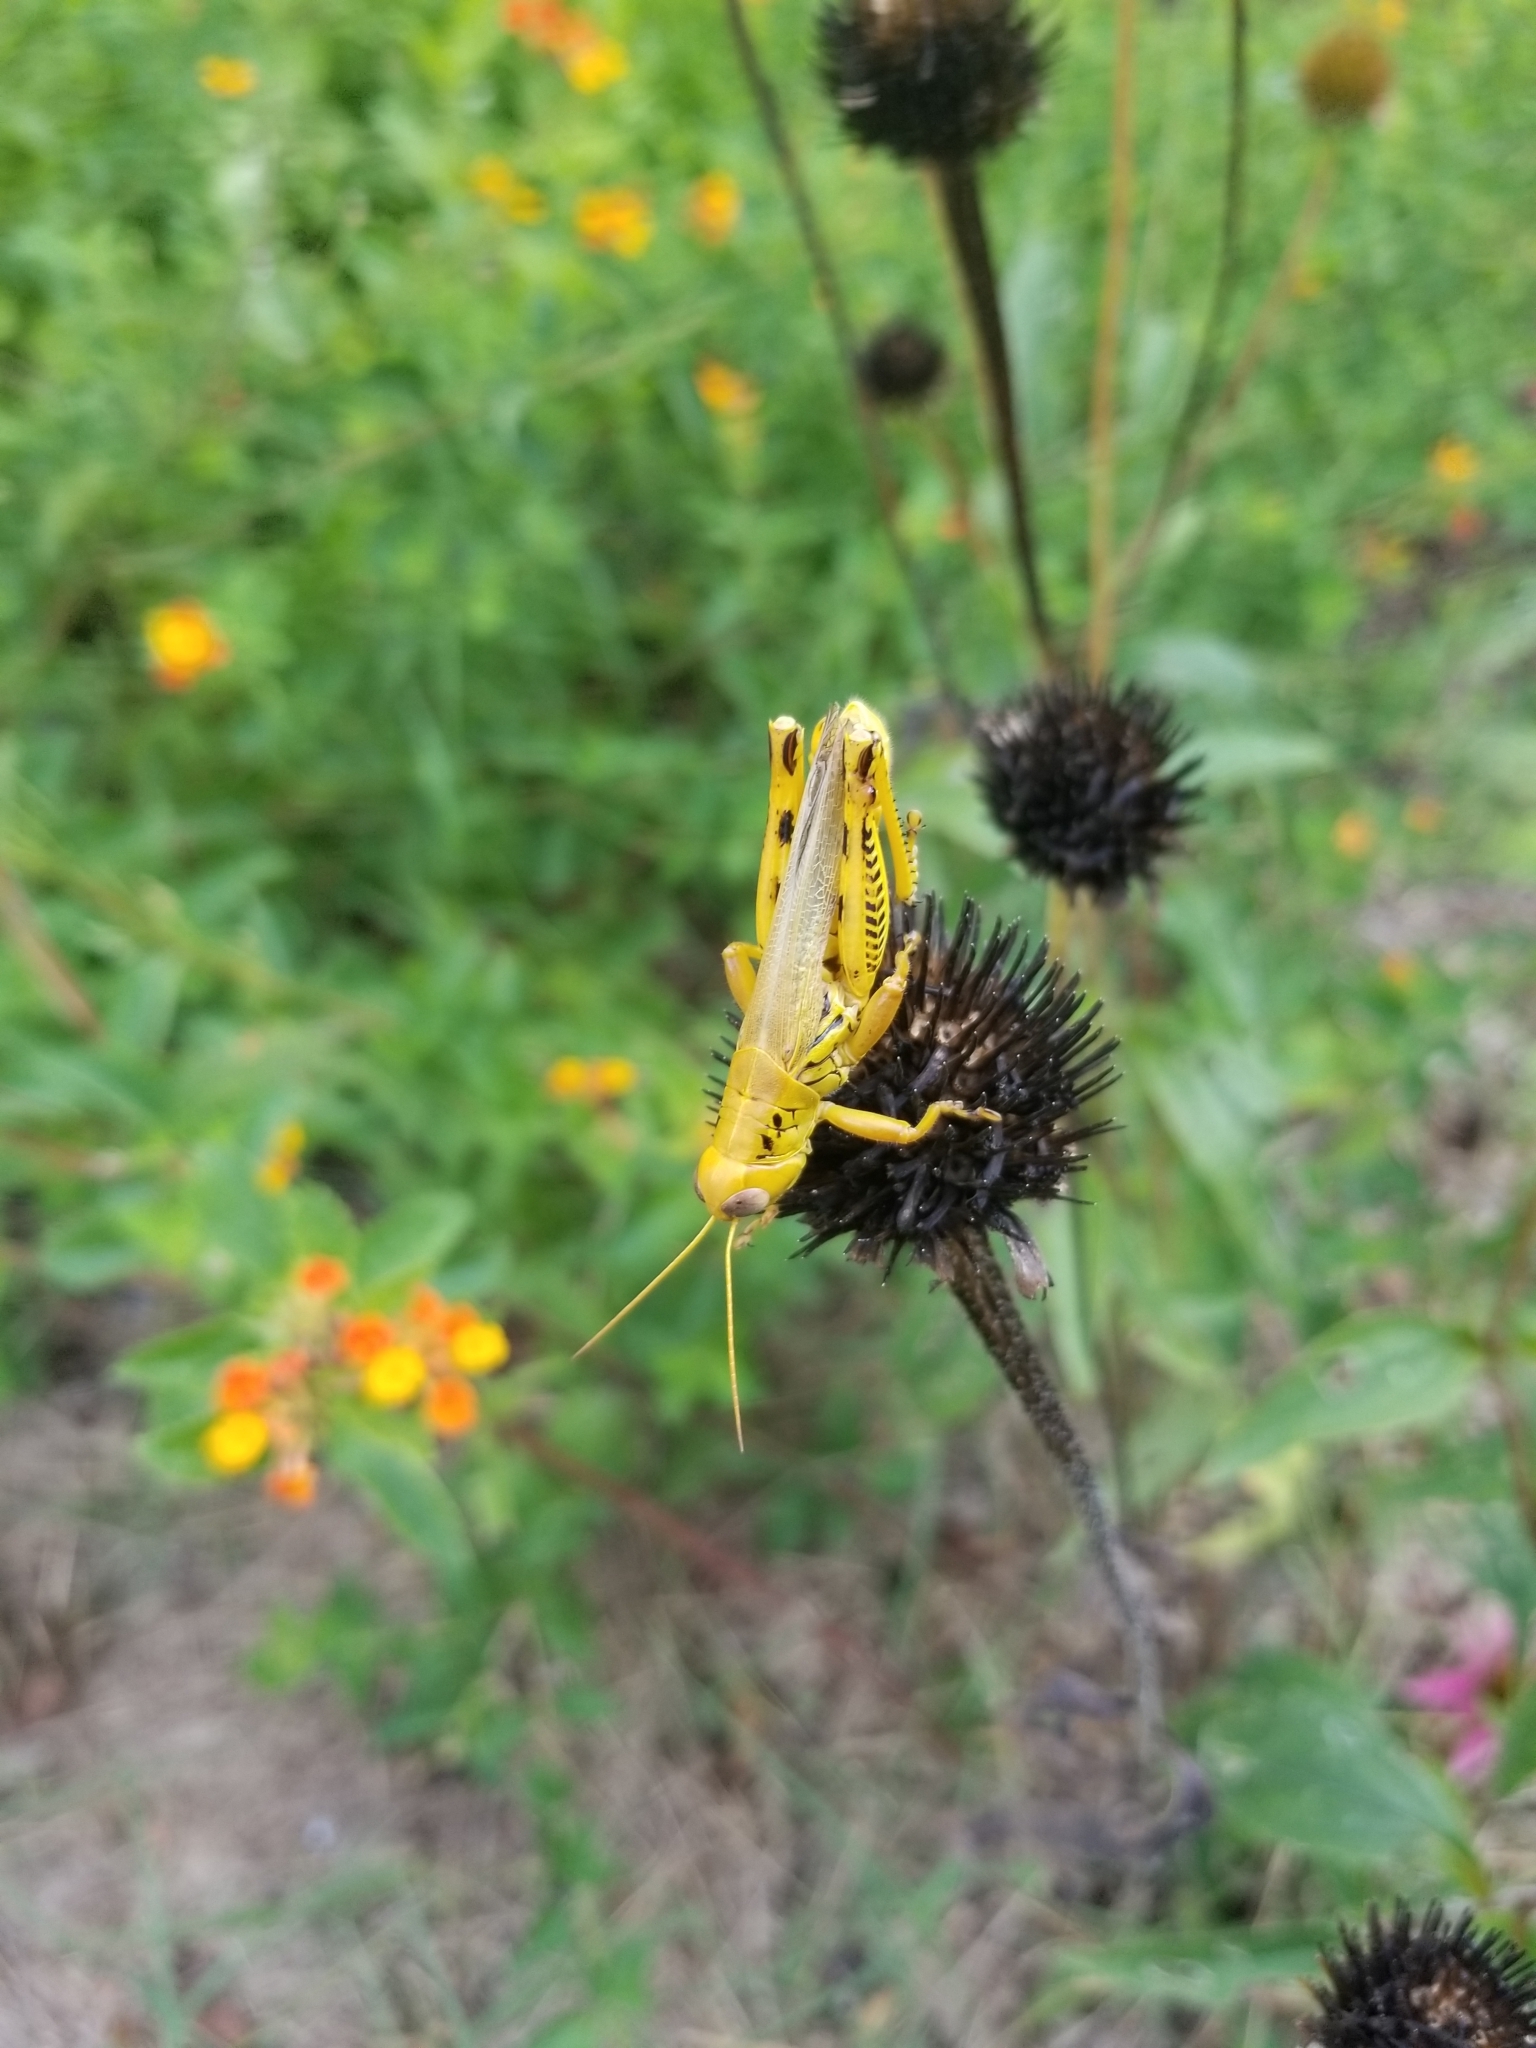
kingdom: Animalia
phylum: Arthropoda
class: Insecta
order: Orthoptera
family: Acrididae
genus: Melanoplus
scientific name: Melanoplus differentialis
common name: Differential grasshopper
